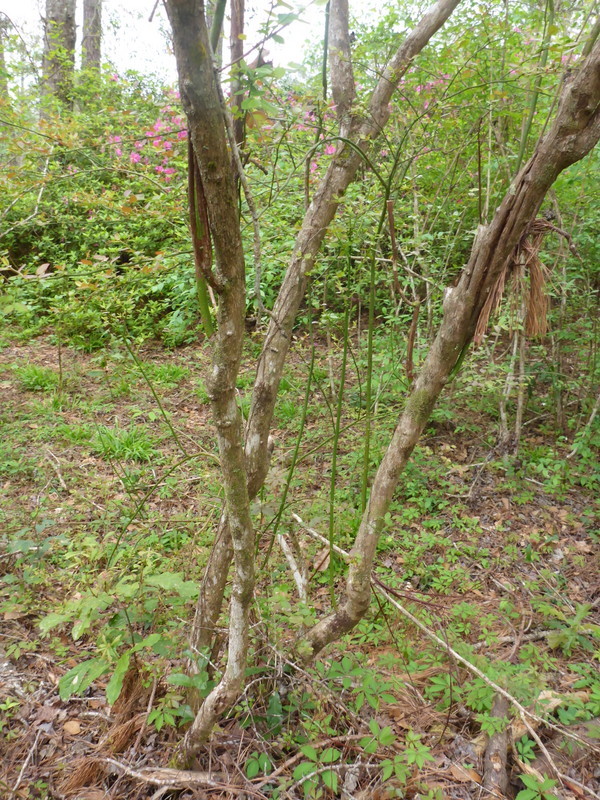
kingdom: Plantae
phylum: Tracheophyta
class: Magnoliopsida
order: Ericales
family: Ericaceae
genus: Vaccinium
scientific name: Vaccinium corymbosum
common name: Blueberry
